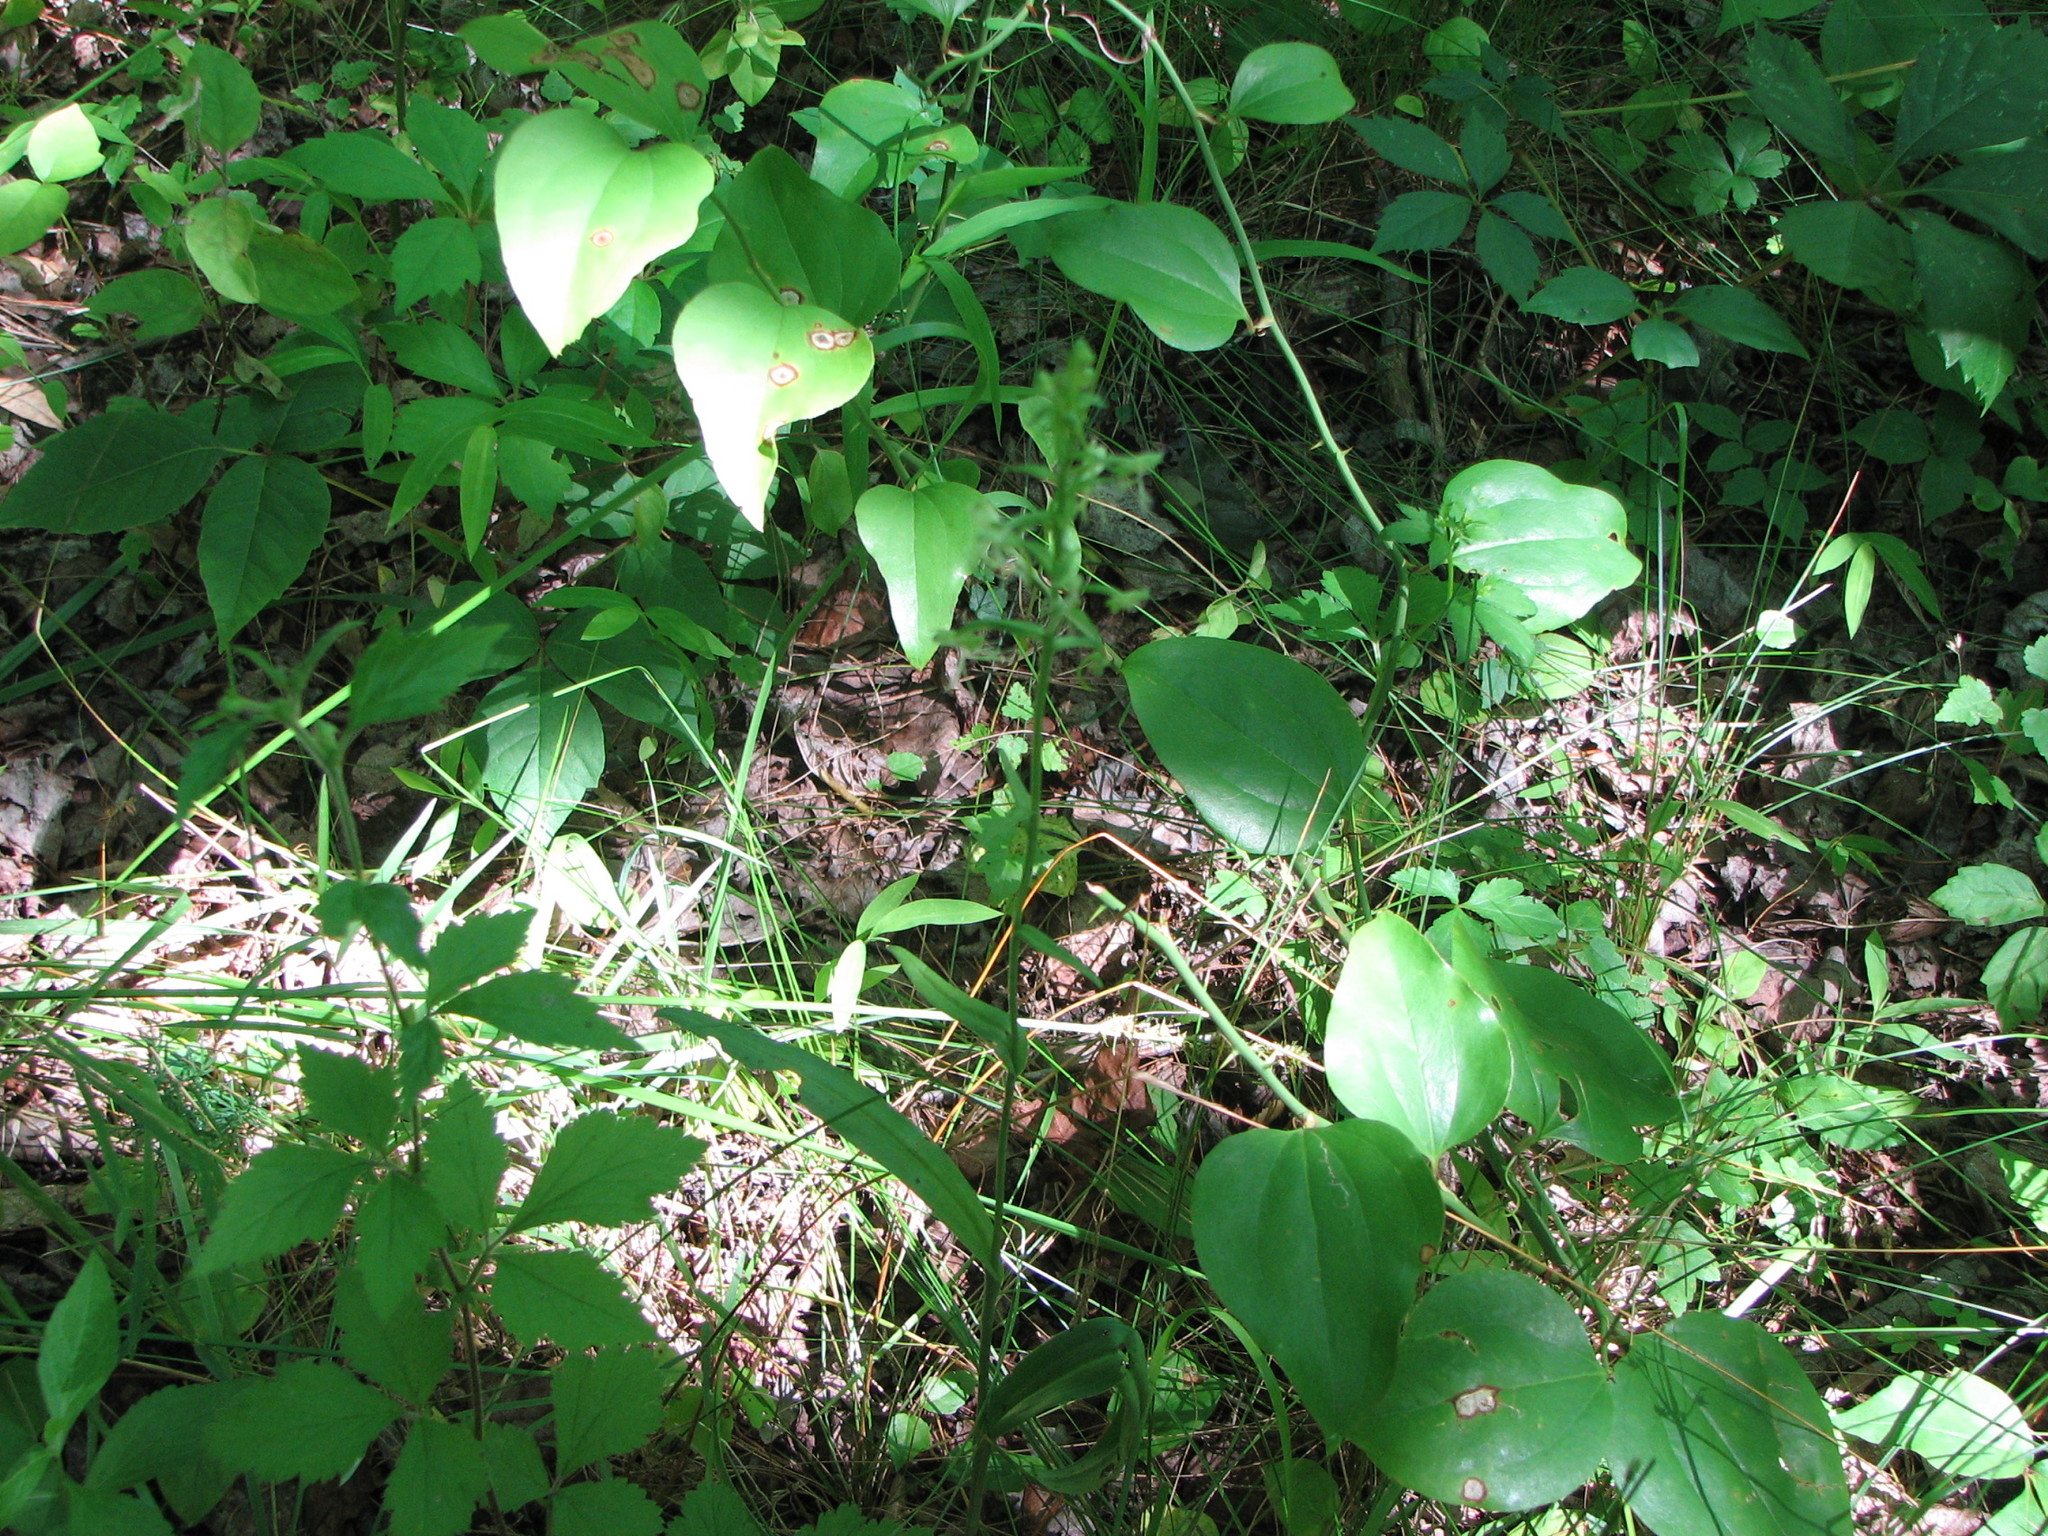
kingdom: Plantae
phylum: Tracheophyta
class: Liliopsida
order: Asparagales
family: Orchidaceae
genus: Platanthera
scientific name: Platanthera lacera
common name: Green fringed orchid
